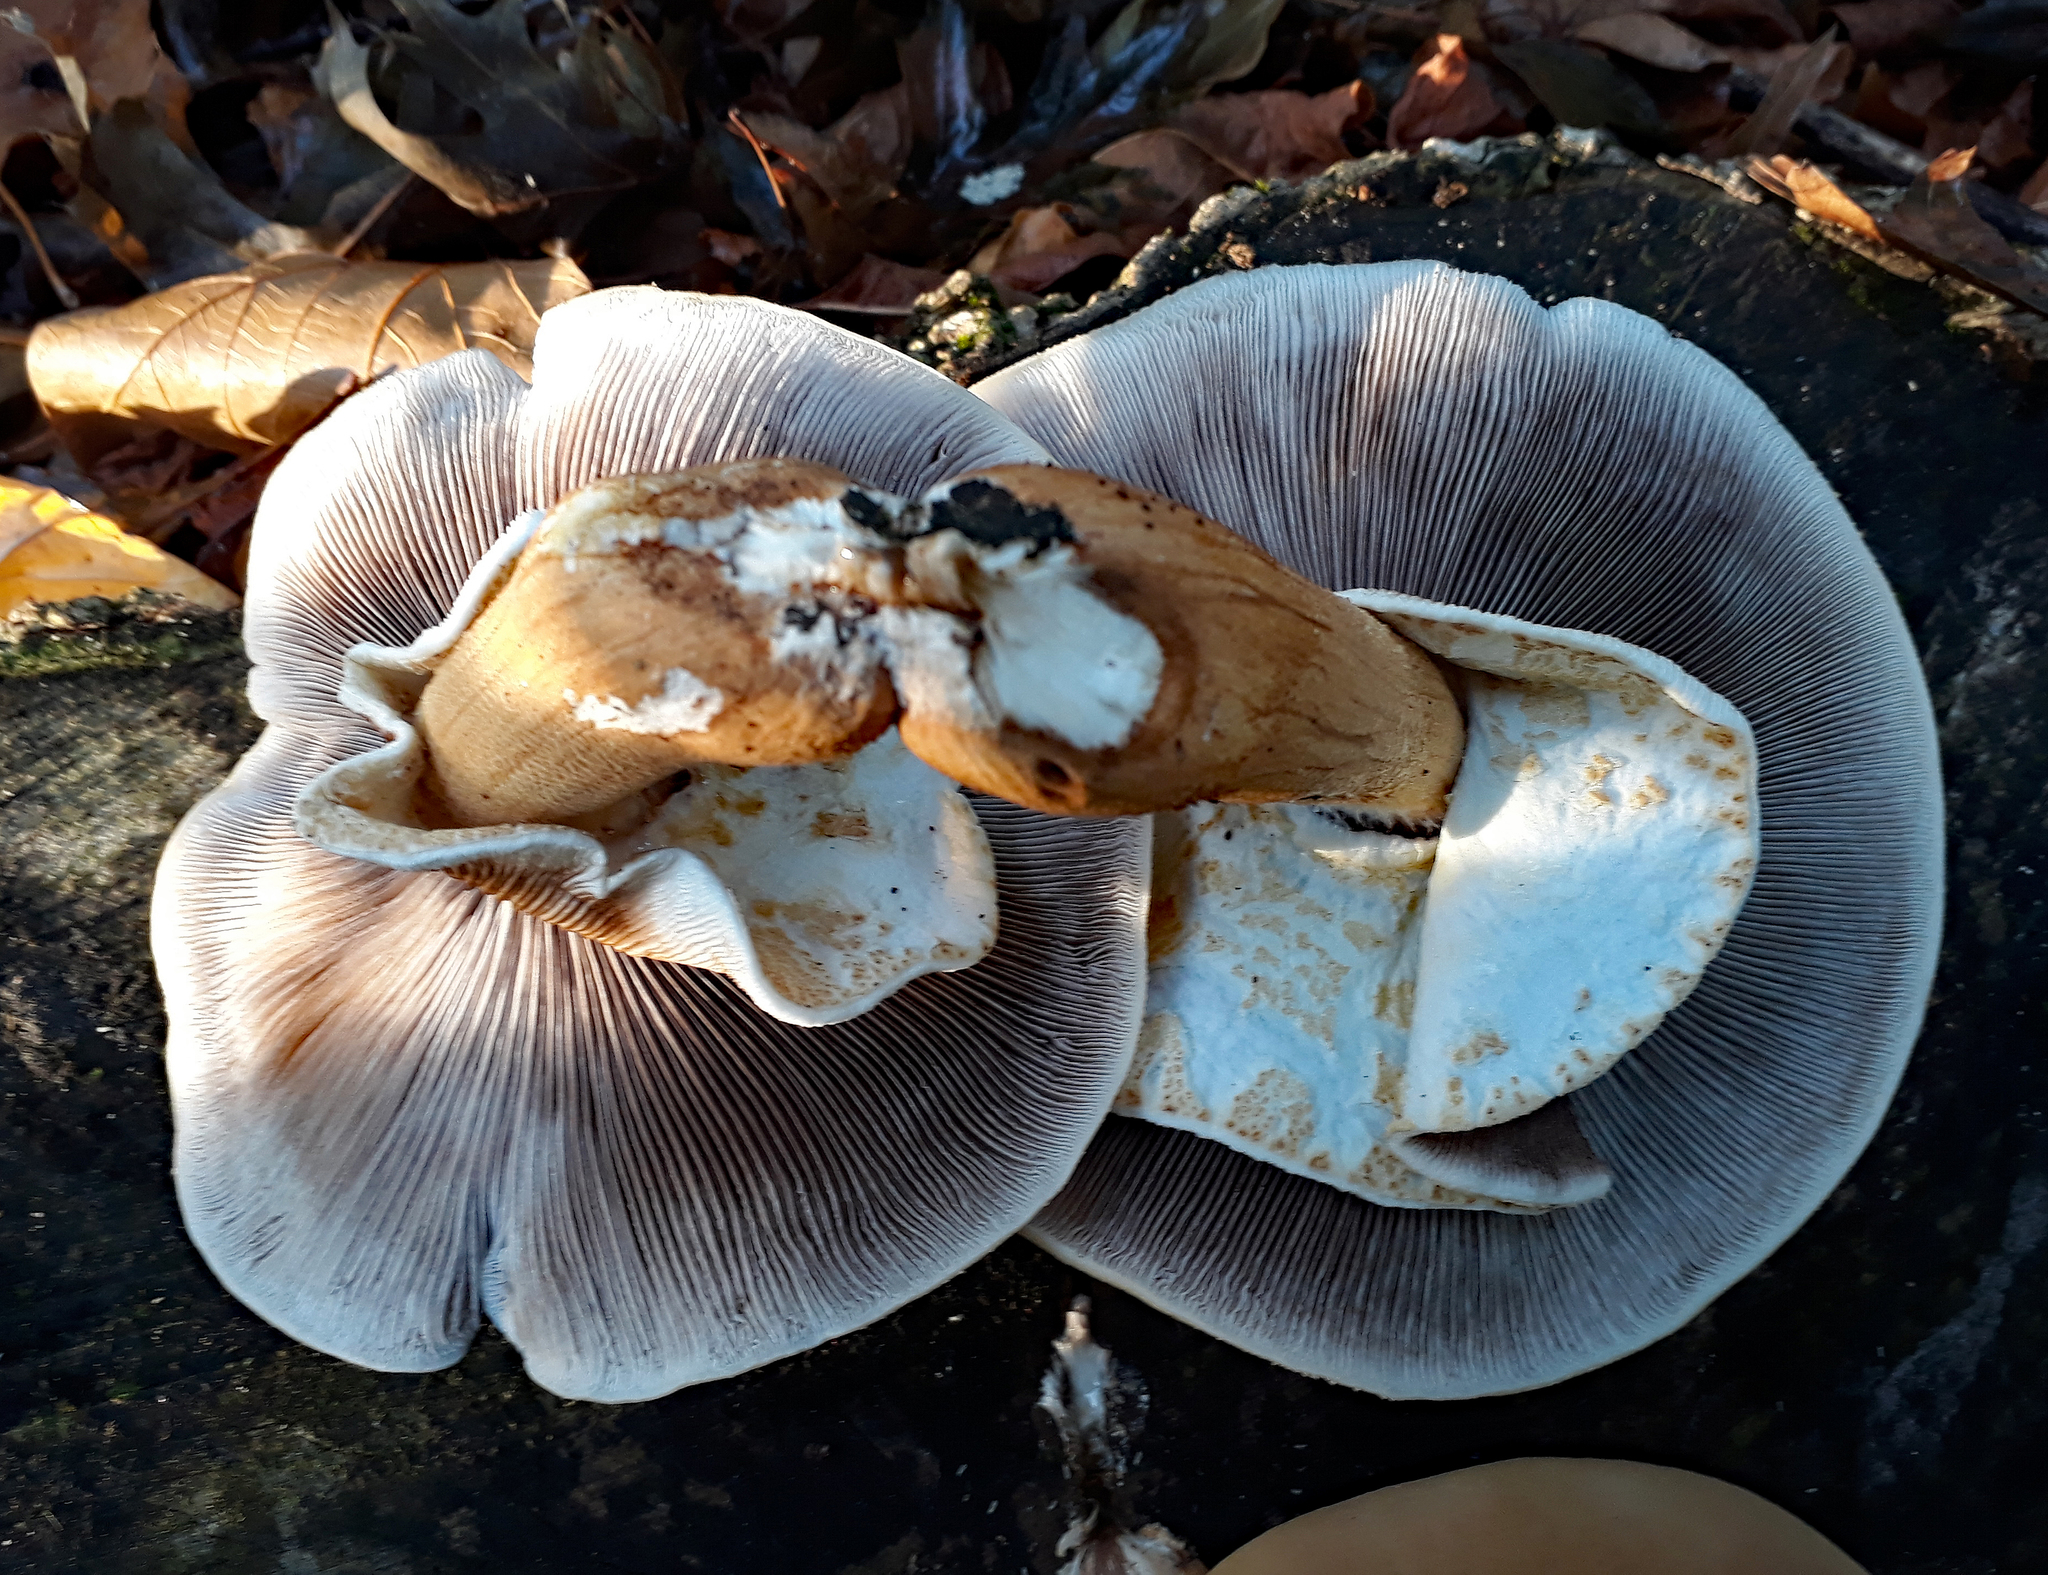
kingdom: Fungi
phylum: Basidiomycota
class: Agaricomycetes
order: Agaricales
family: Tubariaceae
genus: Cyclocybe
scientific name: Cyclocybe parasitica
